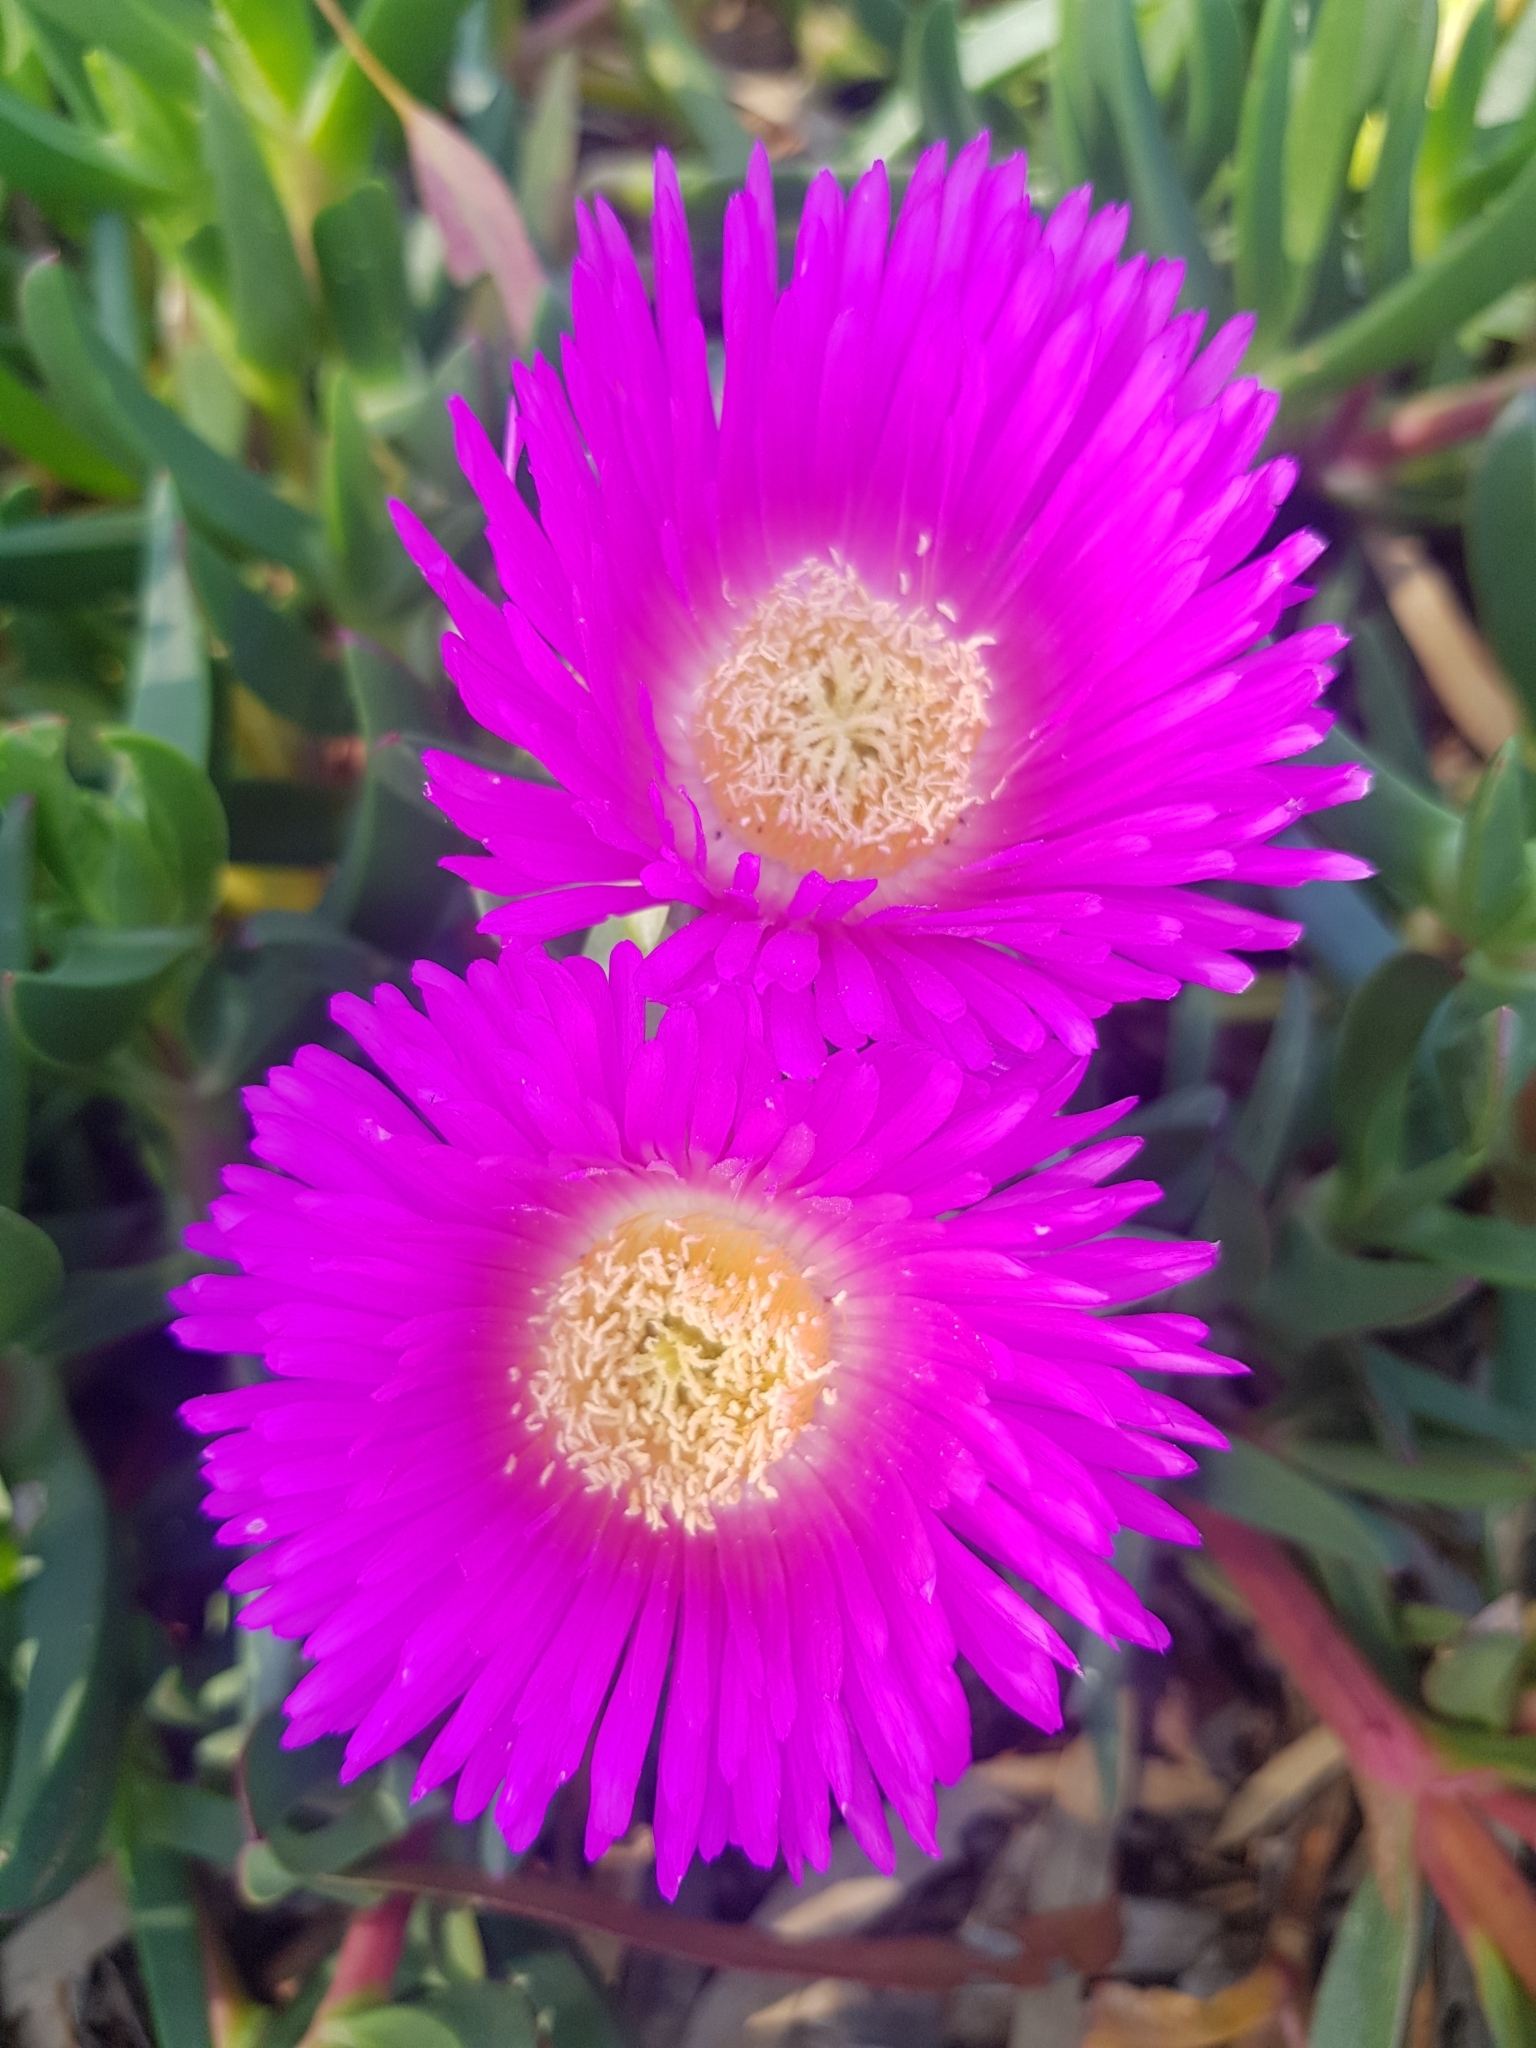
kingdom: Plantae
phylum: Tracheophyta
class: Magnoliopsida
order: Caryophyllales
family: Aizoaceae
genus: Carpobrotus
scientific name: Carpobrotus rossii
